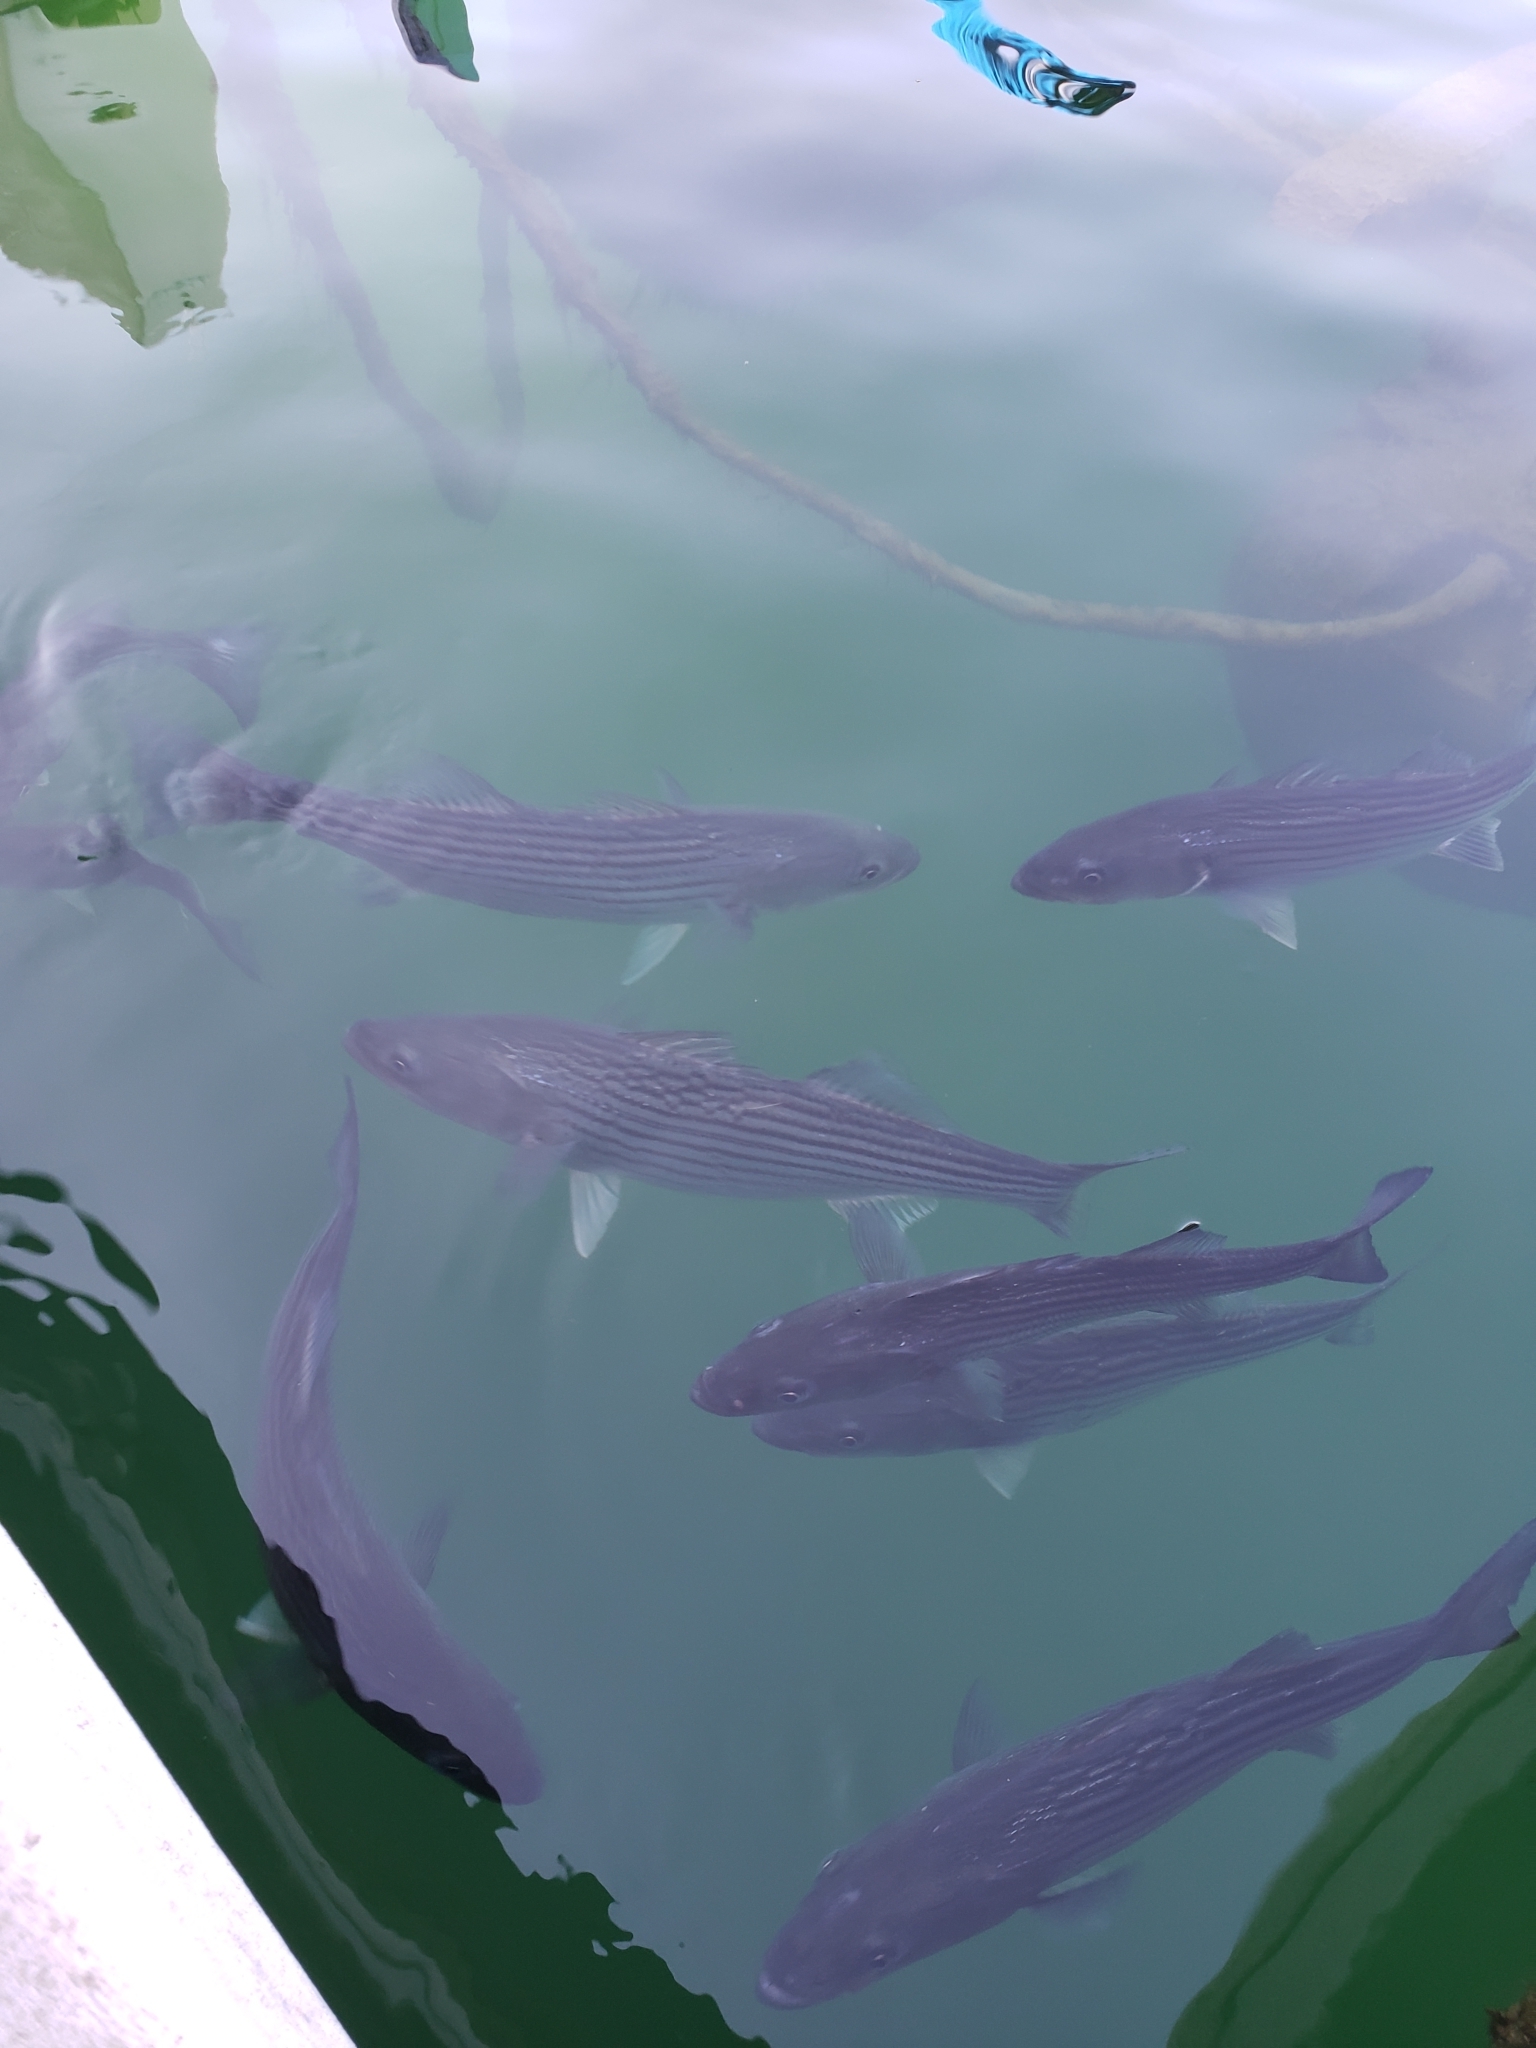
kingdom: Animalia
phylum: Chordata
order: Perciformes
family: Moronidae
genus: Morone
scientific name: Morone saxatilis
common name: Striped bass
